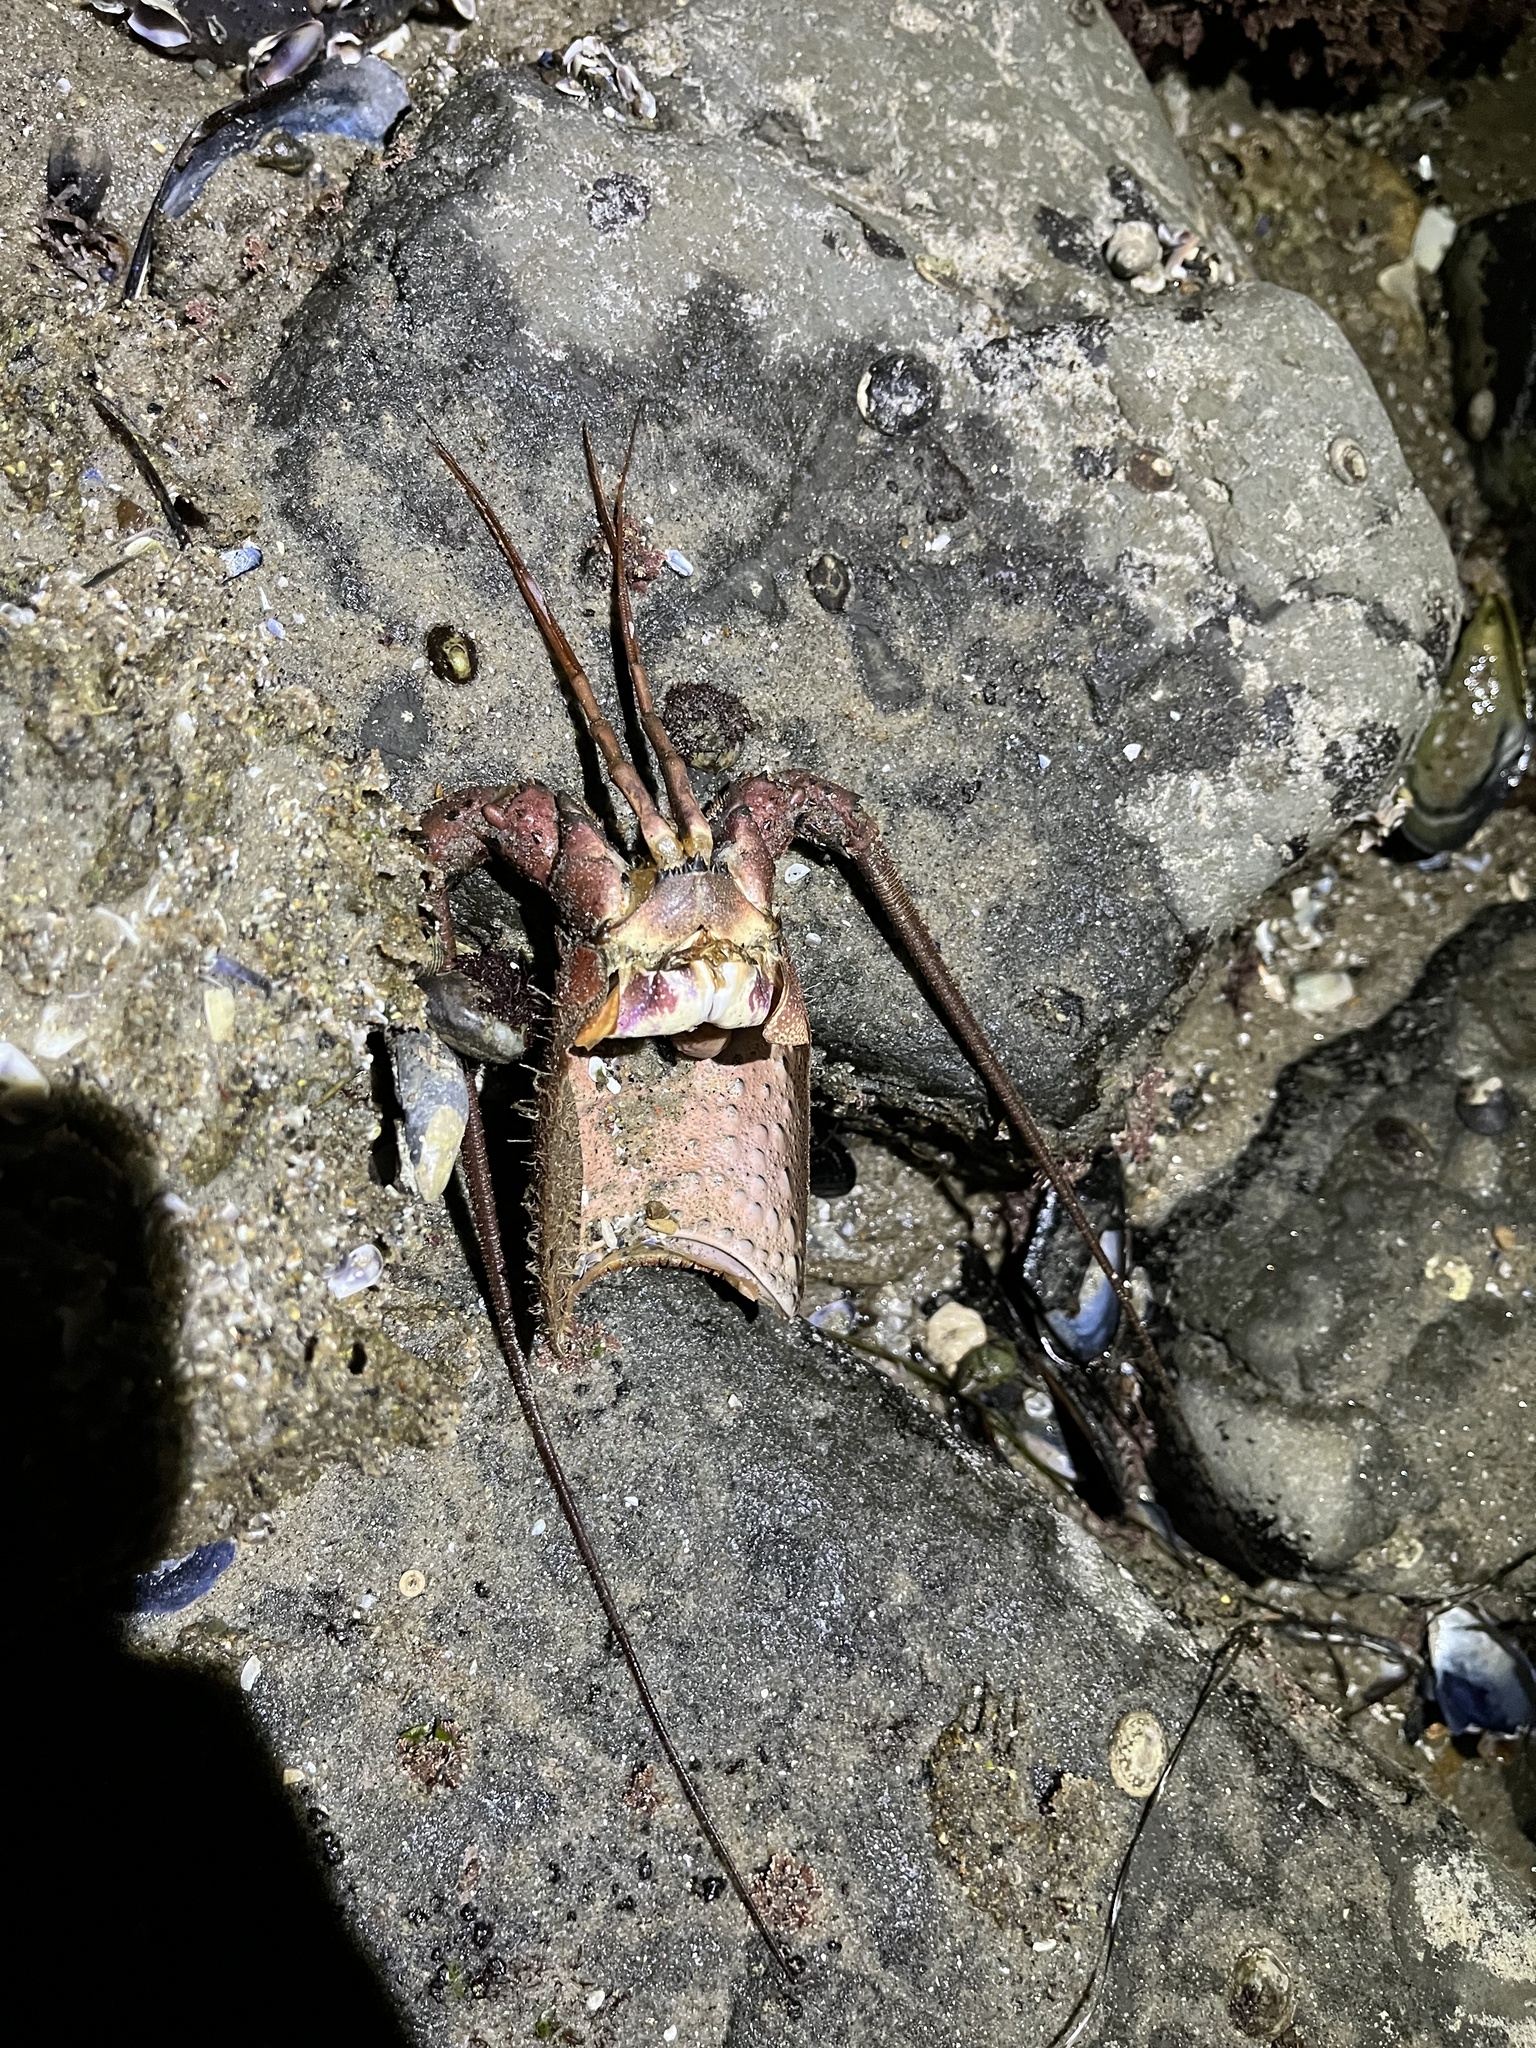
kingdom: Animalia
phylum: Arthropoda
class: Malacostraca
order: Decapoda
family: Palinuridae
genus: Panulirus
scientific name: Panulirus interruptus
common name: California spiny lobster
